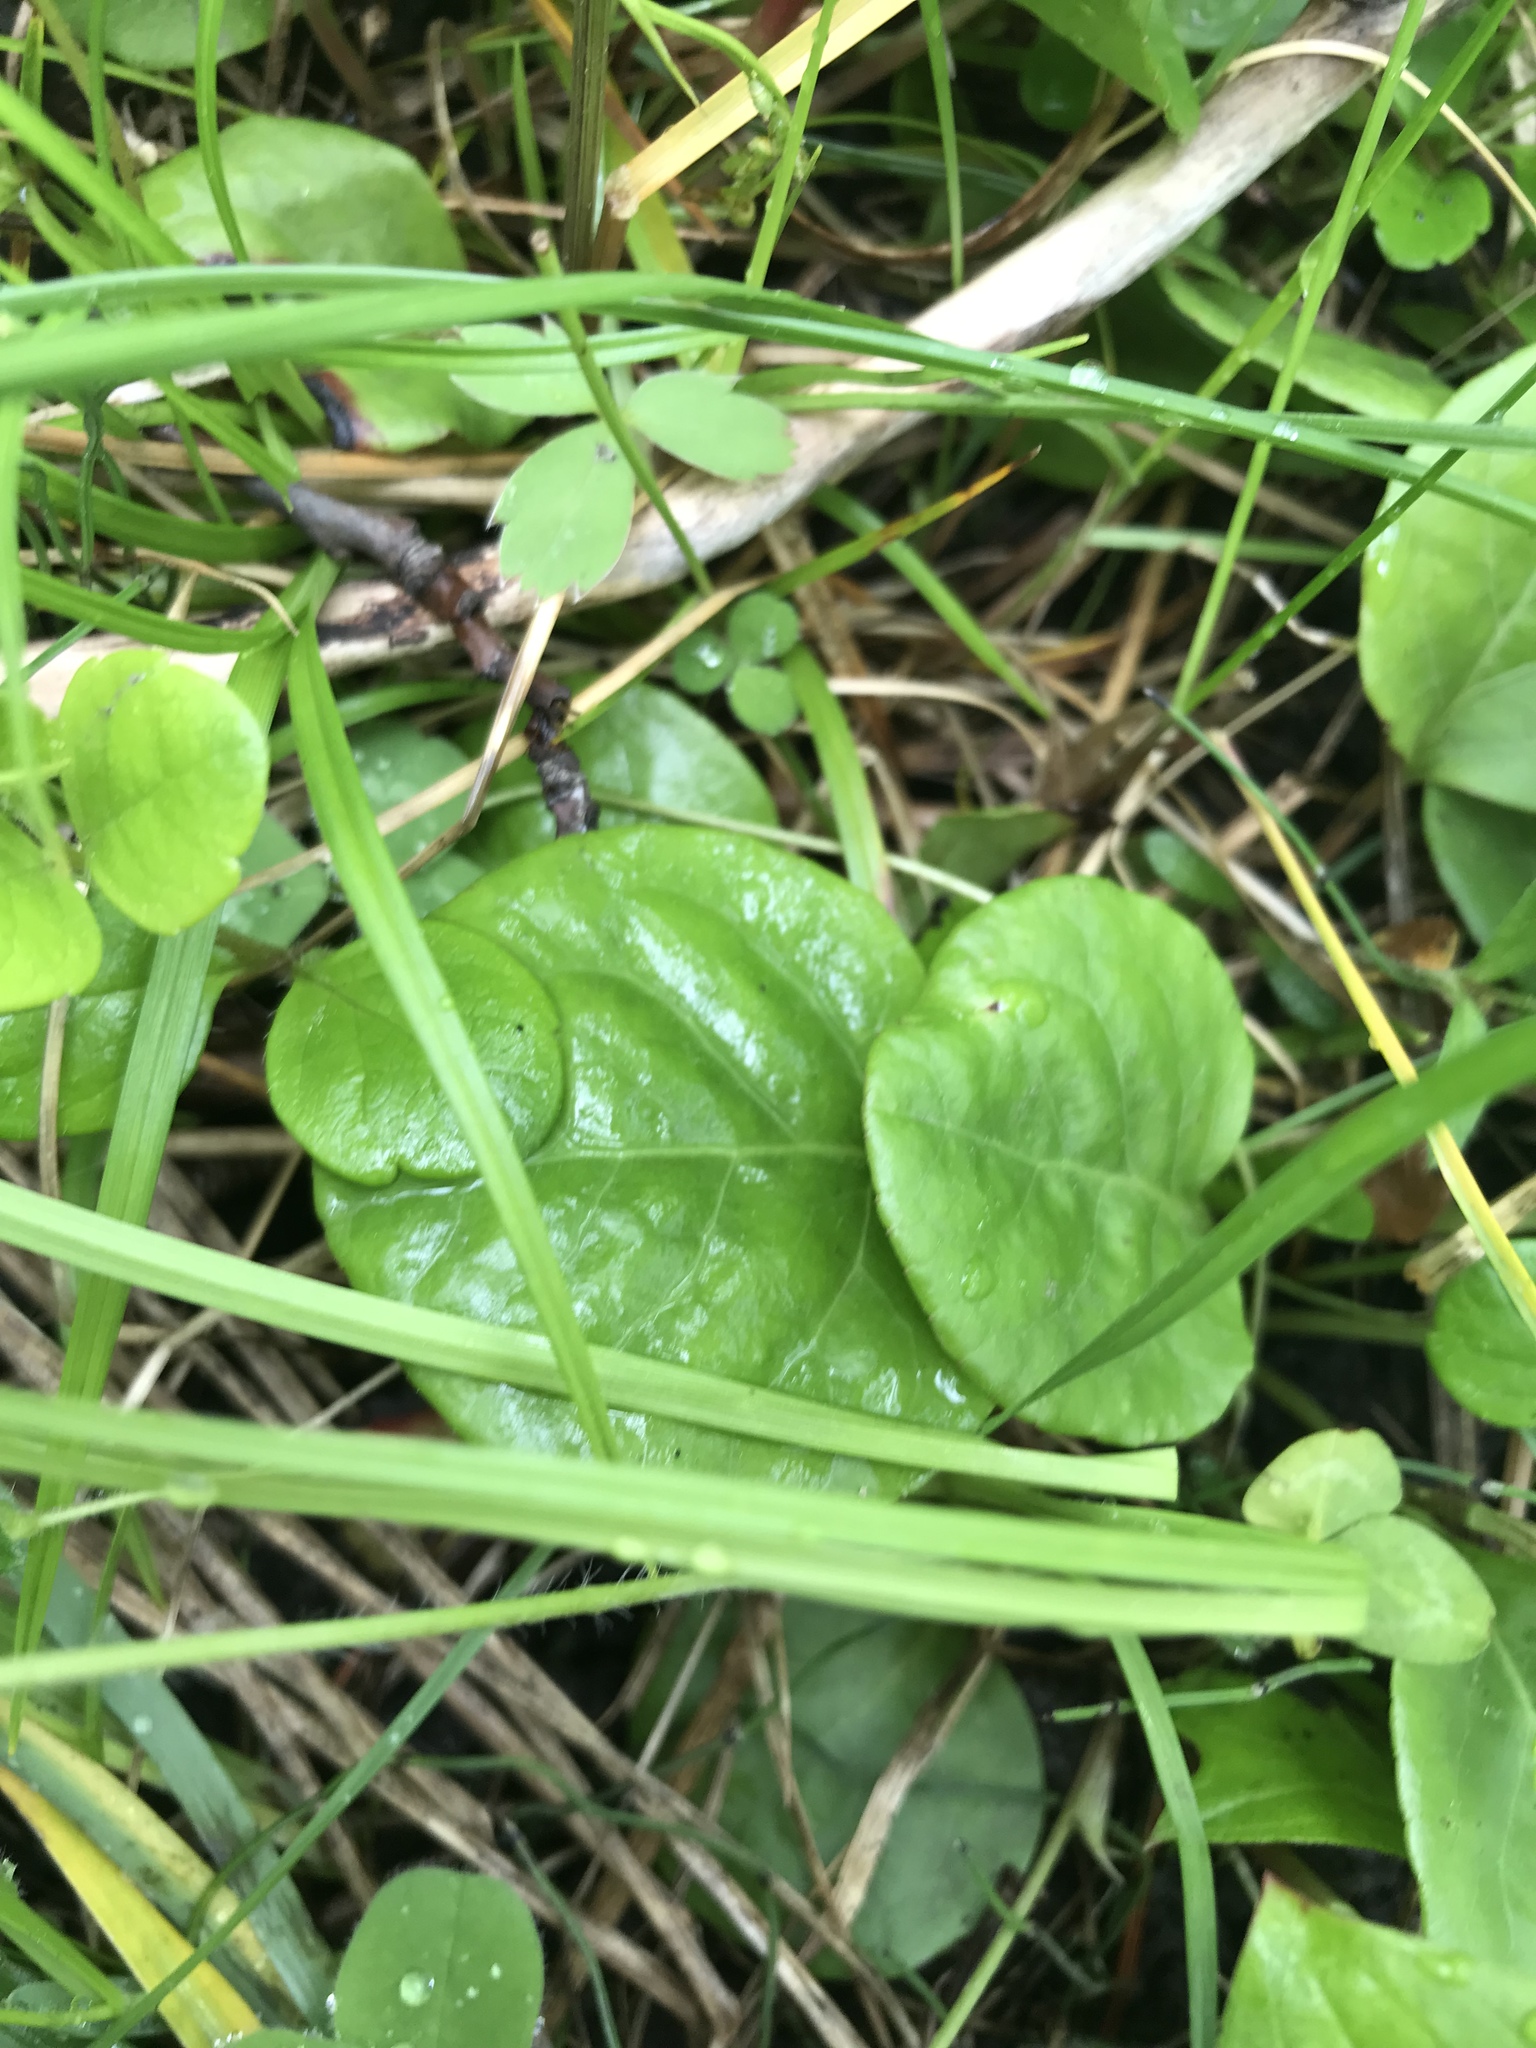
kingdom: Plantae
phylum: Tracheophyta
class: Magnoliopsida
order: Ericales
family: Ericaceae
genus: Pyrola
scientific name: Pyrola asarifolia
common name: Bog wintergreen
